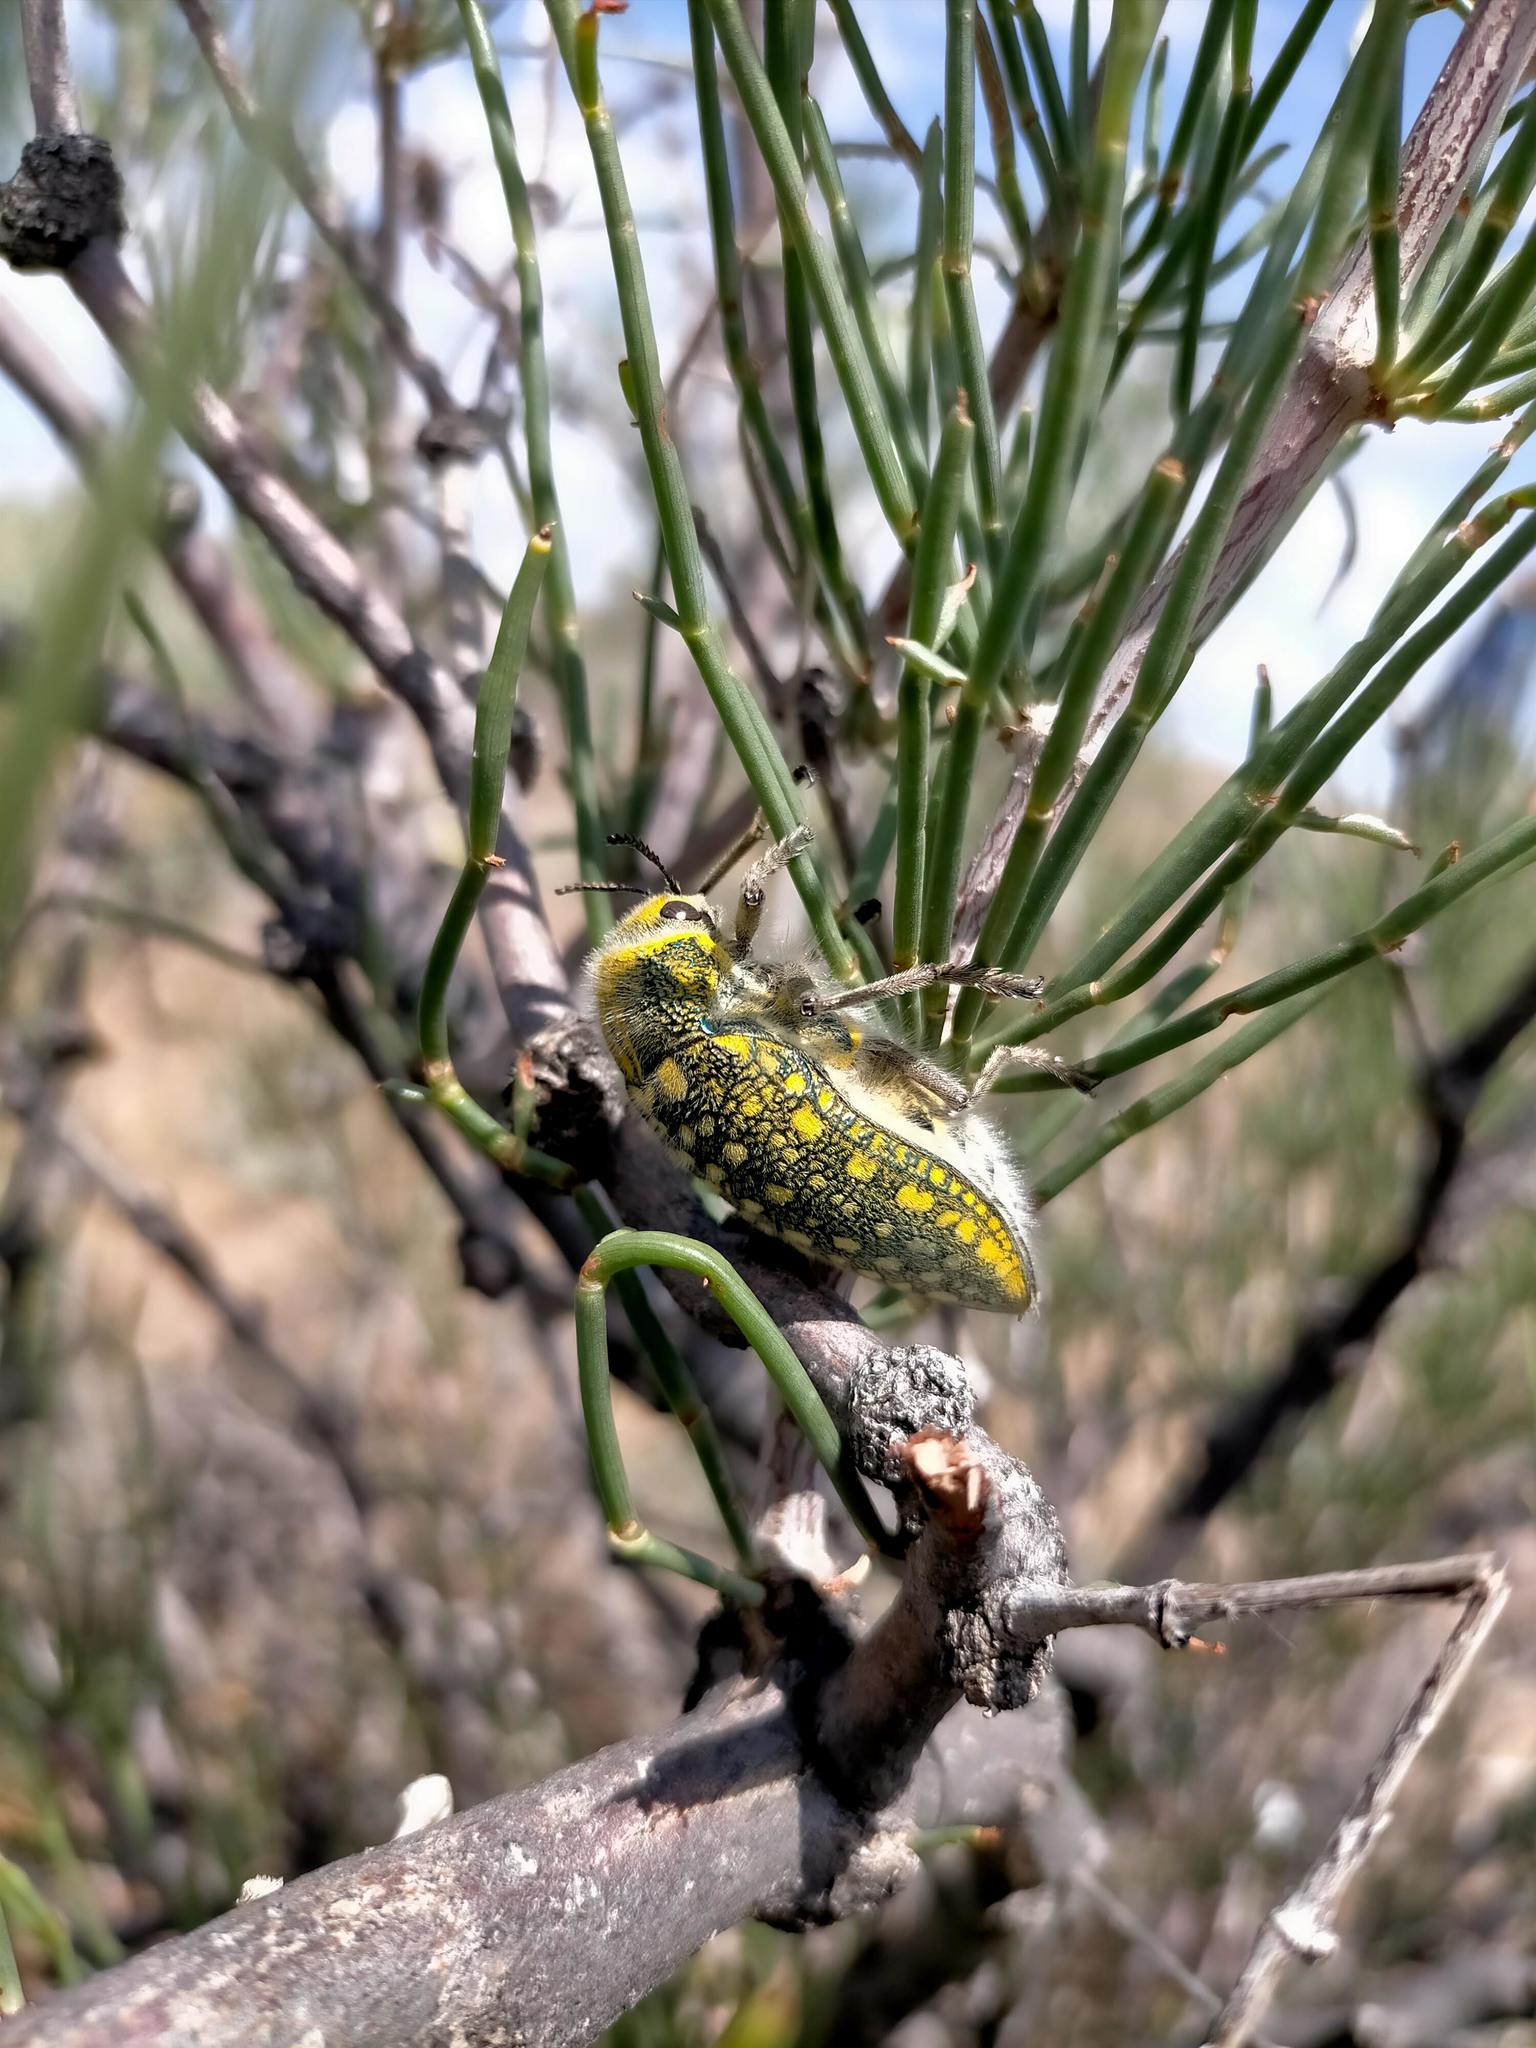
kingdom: Animalia
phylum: Arthropoda
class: Insecta
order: Coleoptera
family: Buprestidae
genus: Julodis
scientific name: Julodis variolaris
